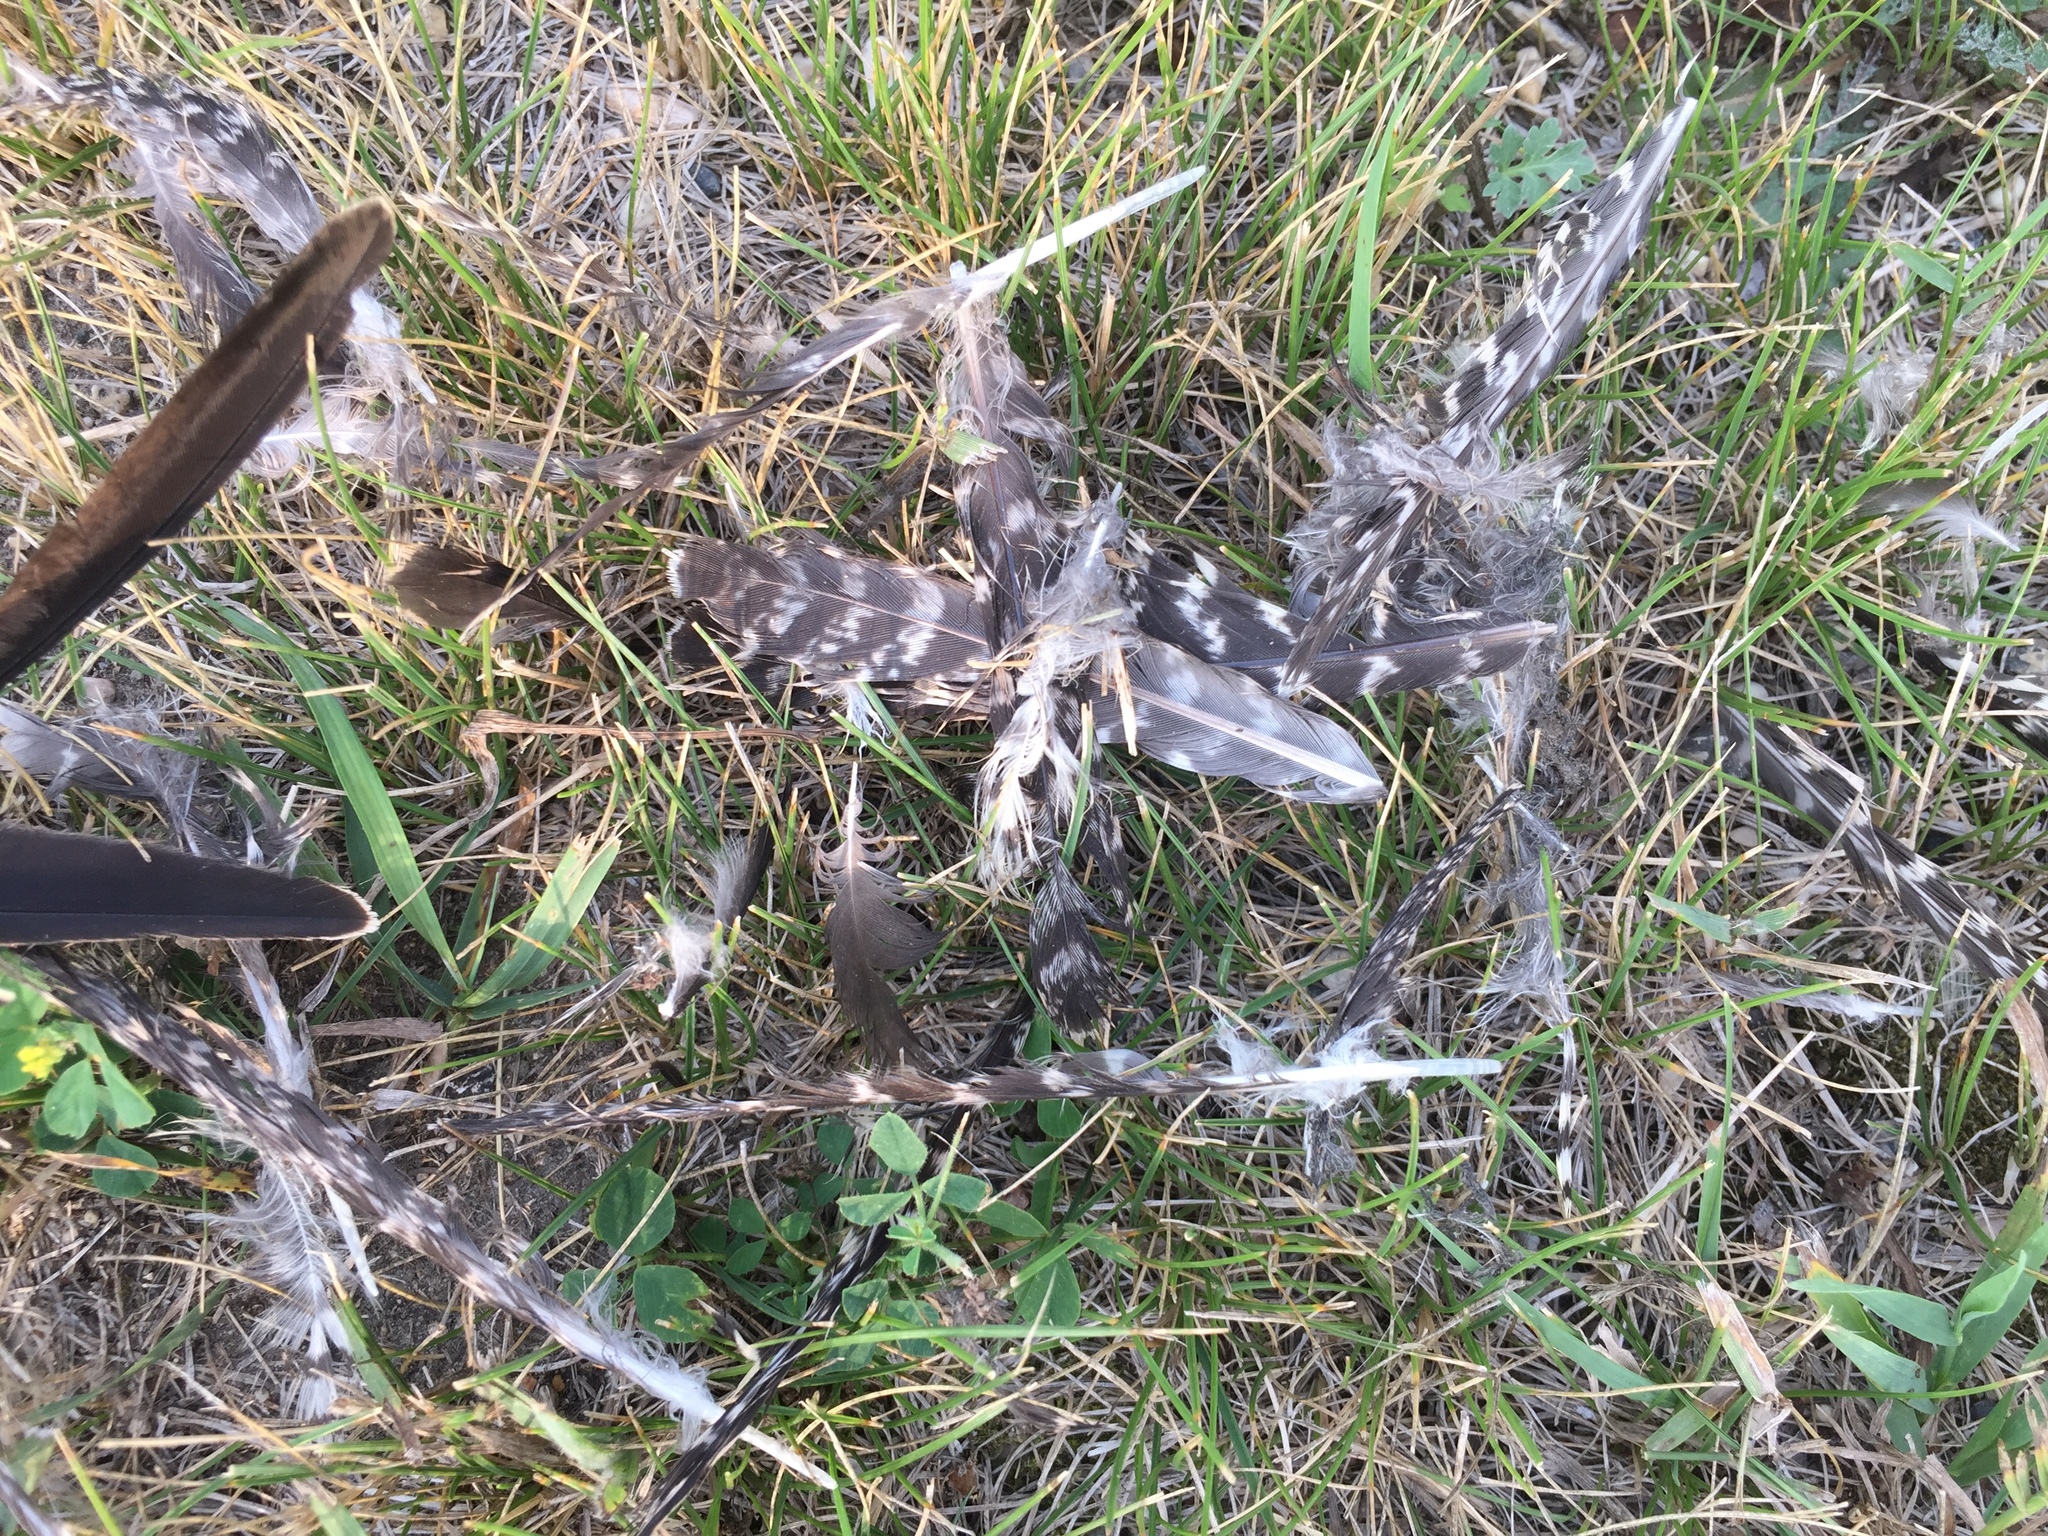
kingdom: Animalia
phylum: Chordata
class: Aves
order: Caprimulgiformes
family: Caprimulgidae
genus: Chordeiles
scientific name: Chordeiles minor
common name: Common nighthawk
